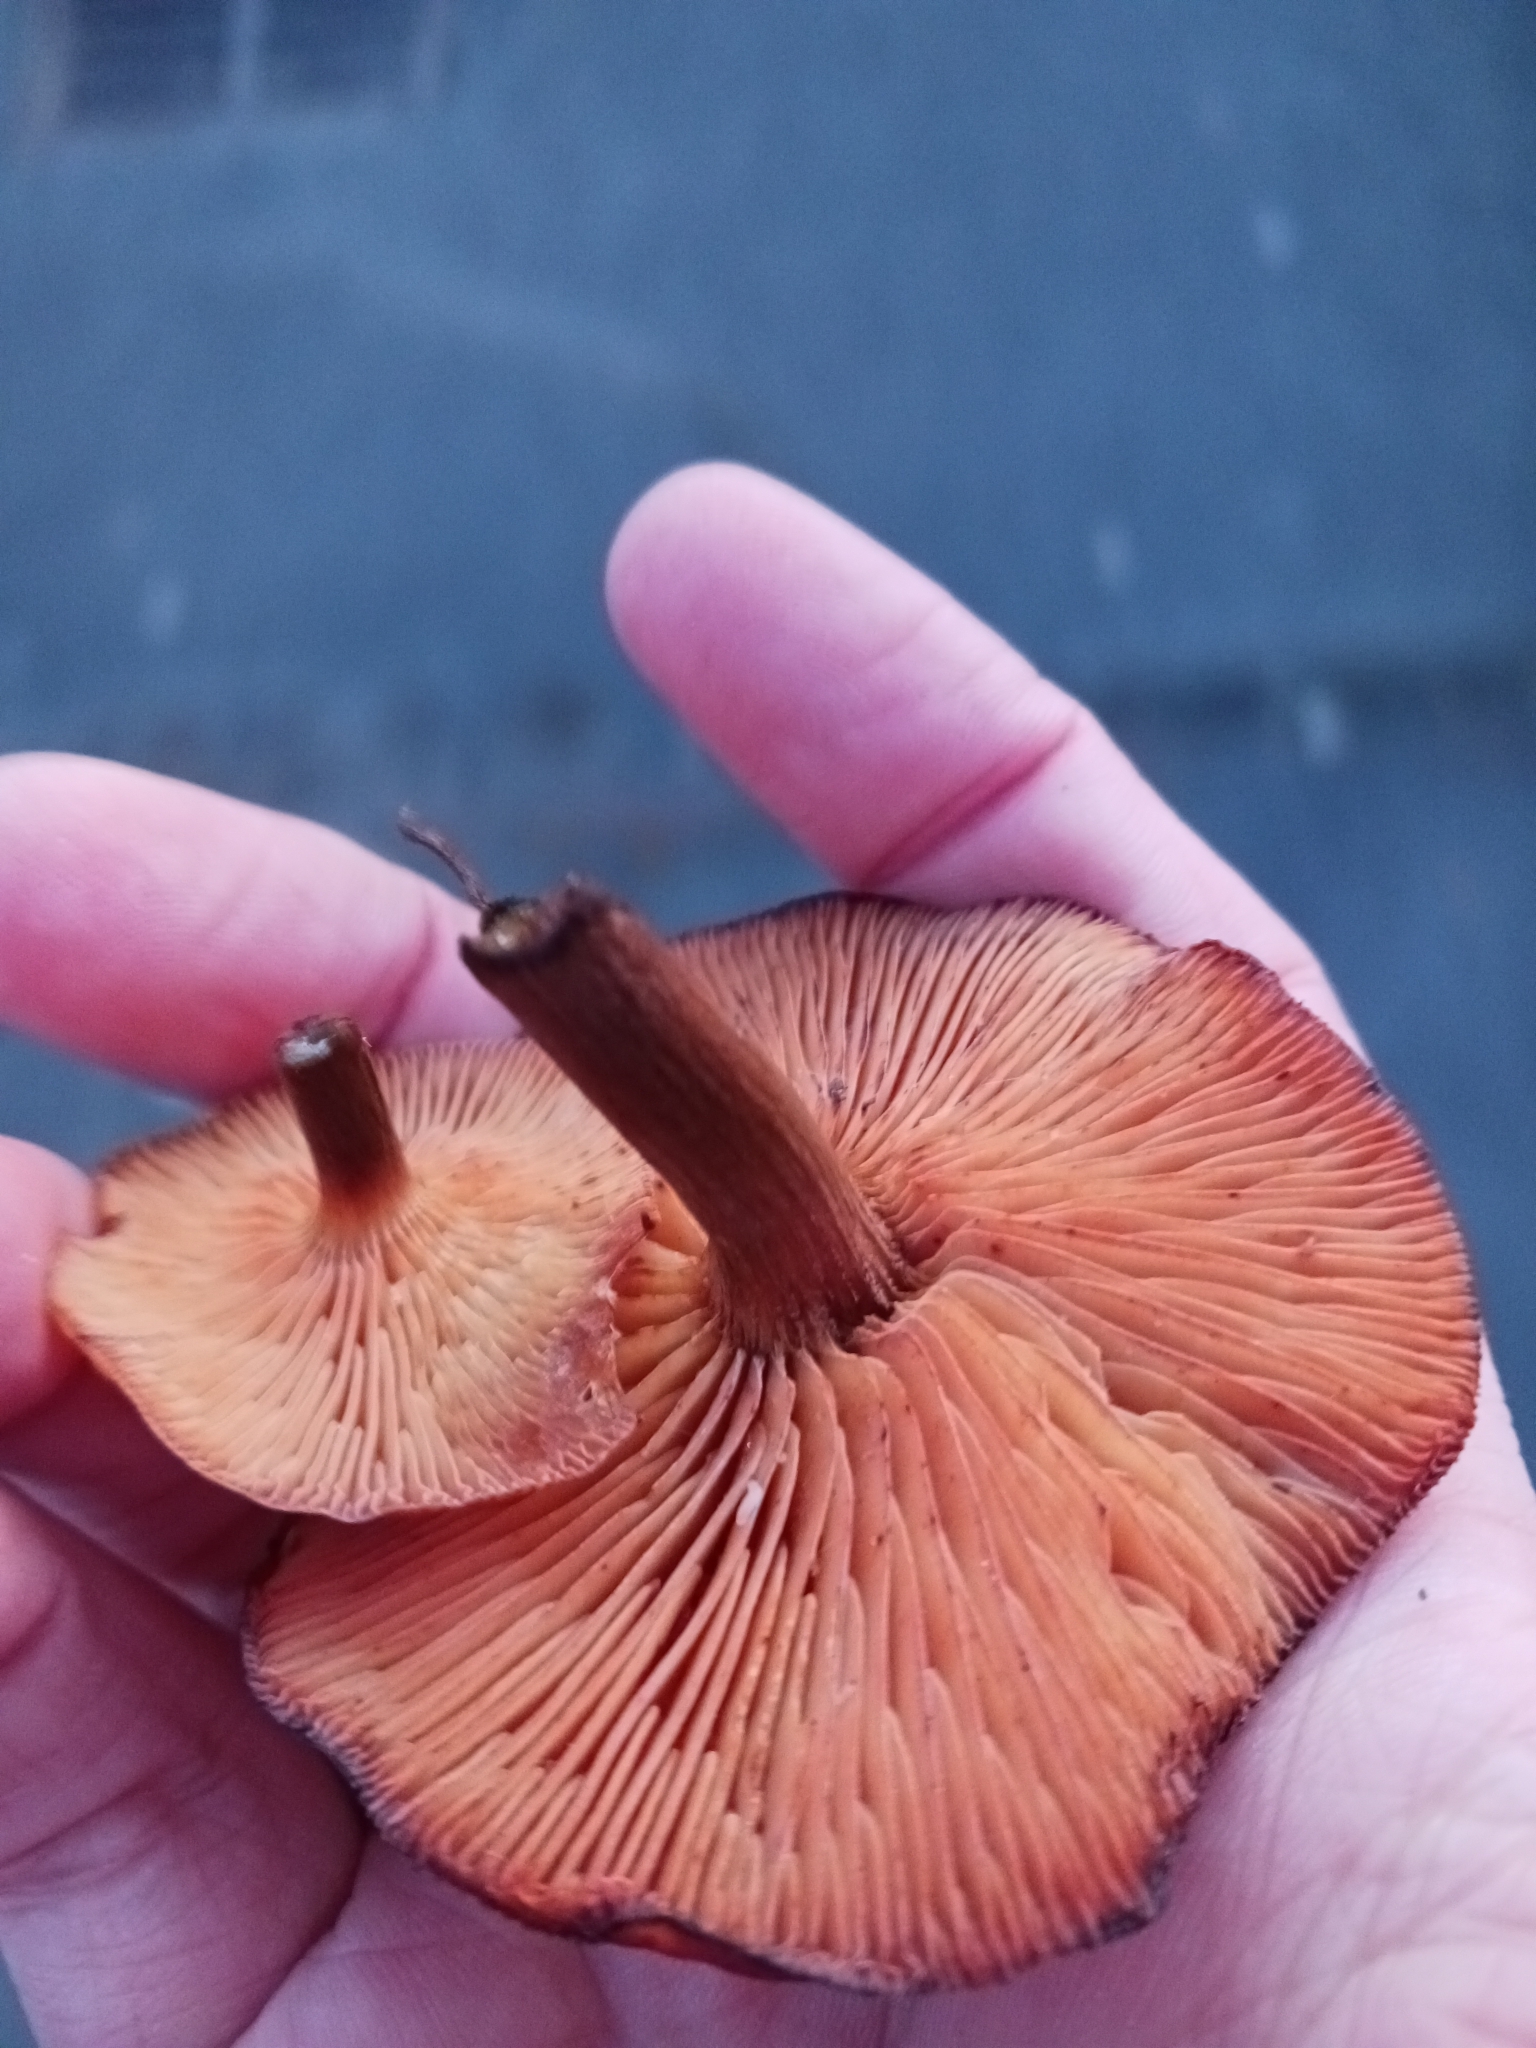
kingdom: Fungi
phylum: Basidiomycota
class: Agaricomycetes
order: Agaricales
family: Physalacriaceae
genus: Flammulina
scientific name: Flammulina velutipes
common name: Velvet shank
